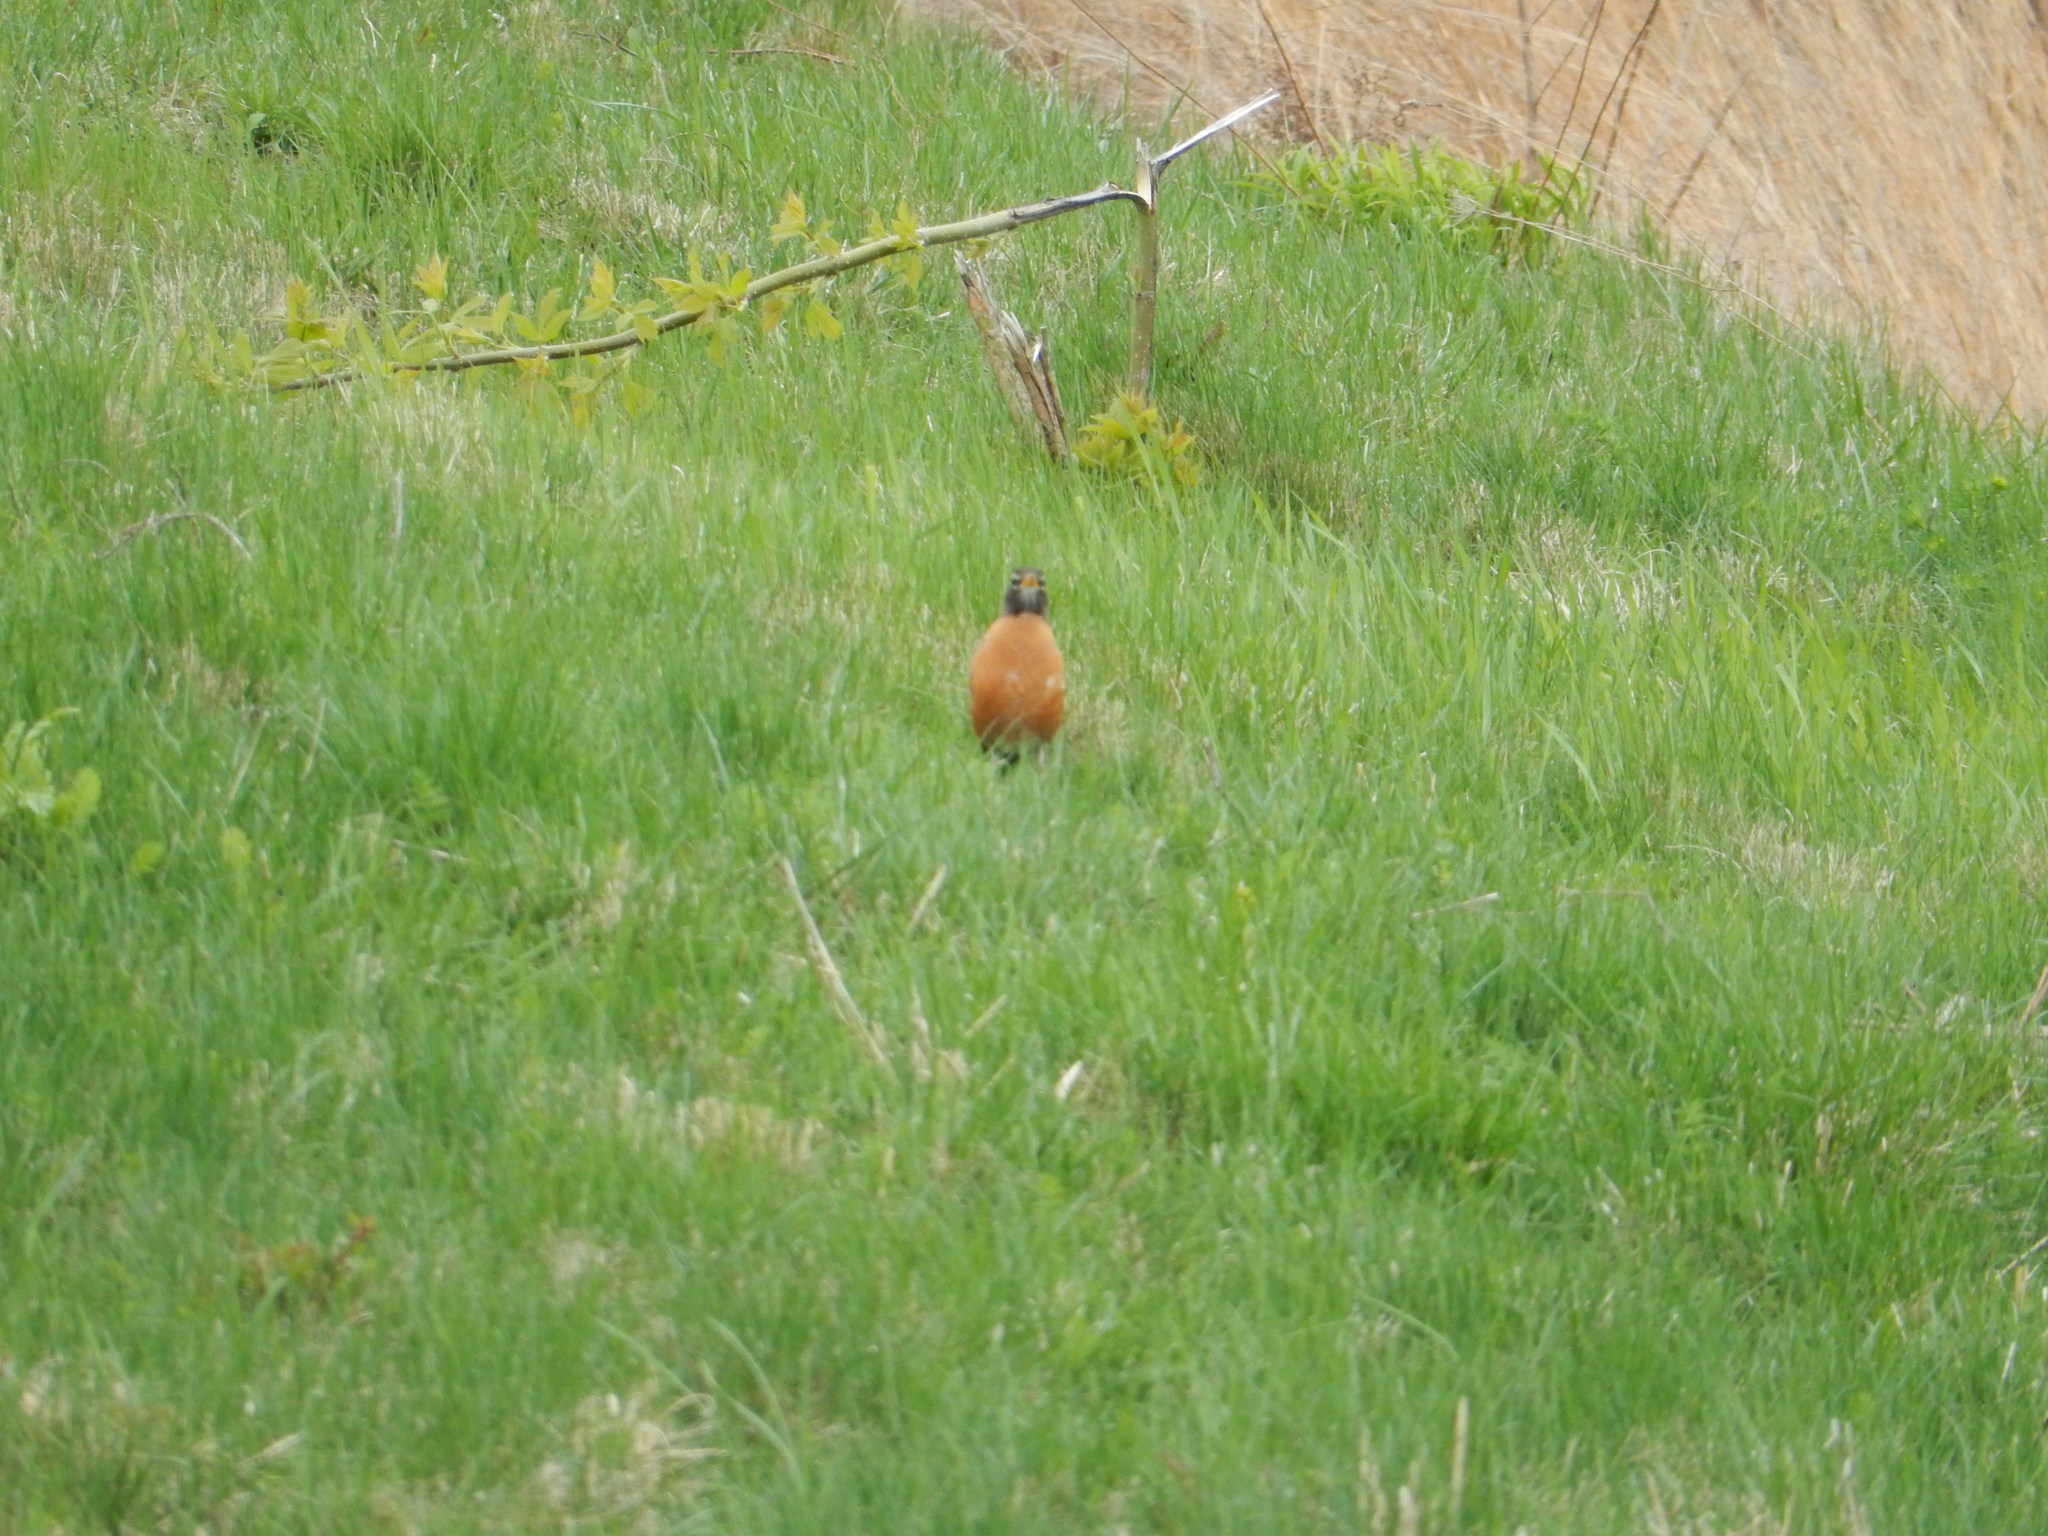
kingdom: Animalia
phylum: Chordata
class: Aves
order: Passeriformes
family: Turdidae
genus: Turdus
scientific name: Turdus migratorius
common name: American robin
